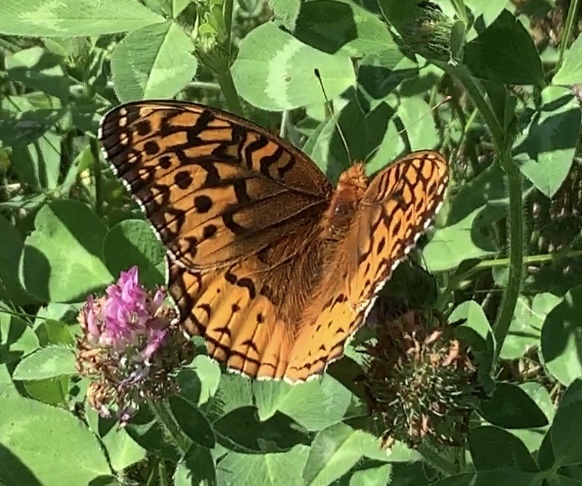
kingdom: Animalia
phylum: Arthropoda
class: Insecta
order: Lepidoptera
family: Nymphalidae
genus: Speyeria
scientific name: Speyeria cybele
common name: Great spangled fritillary
